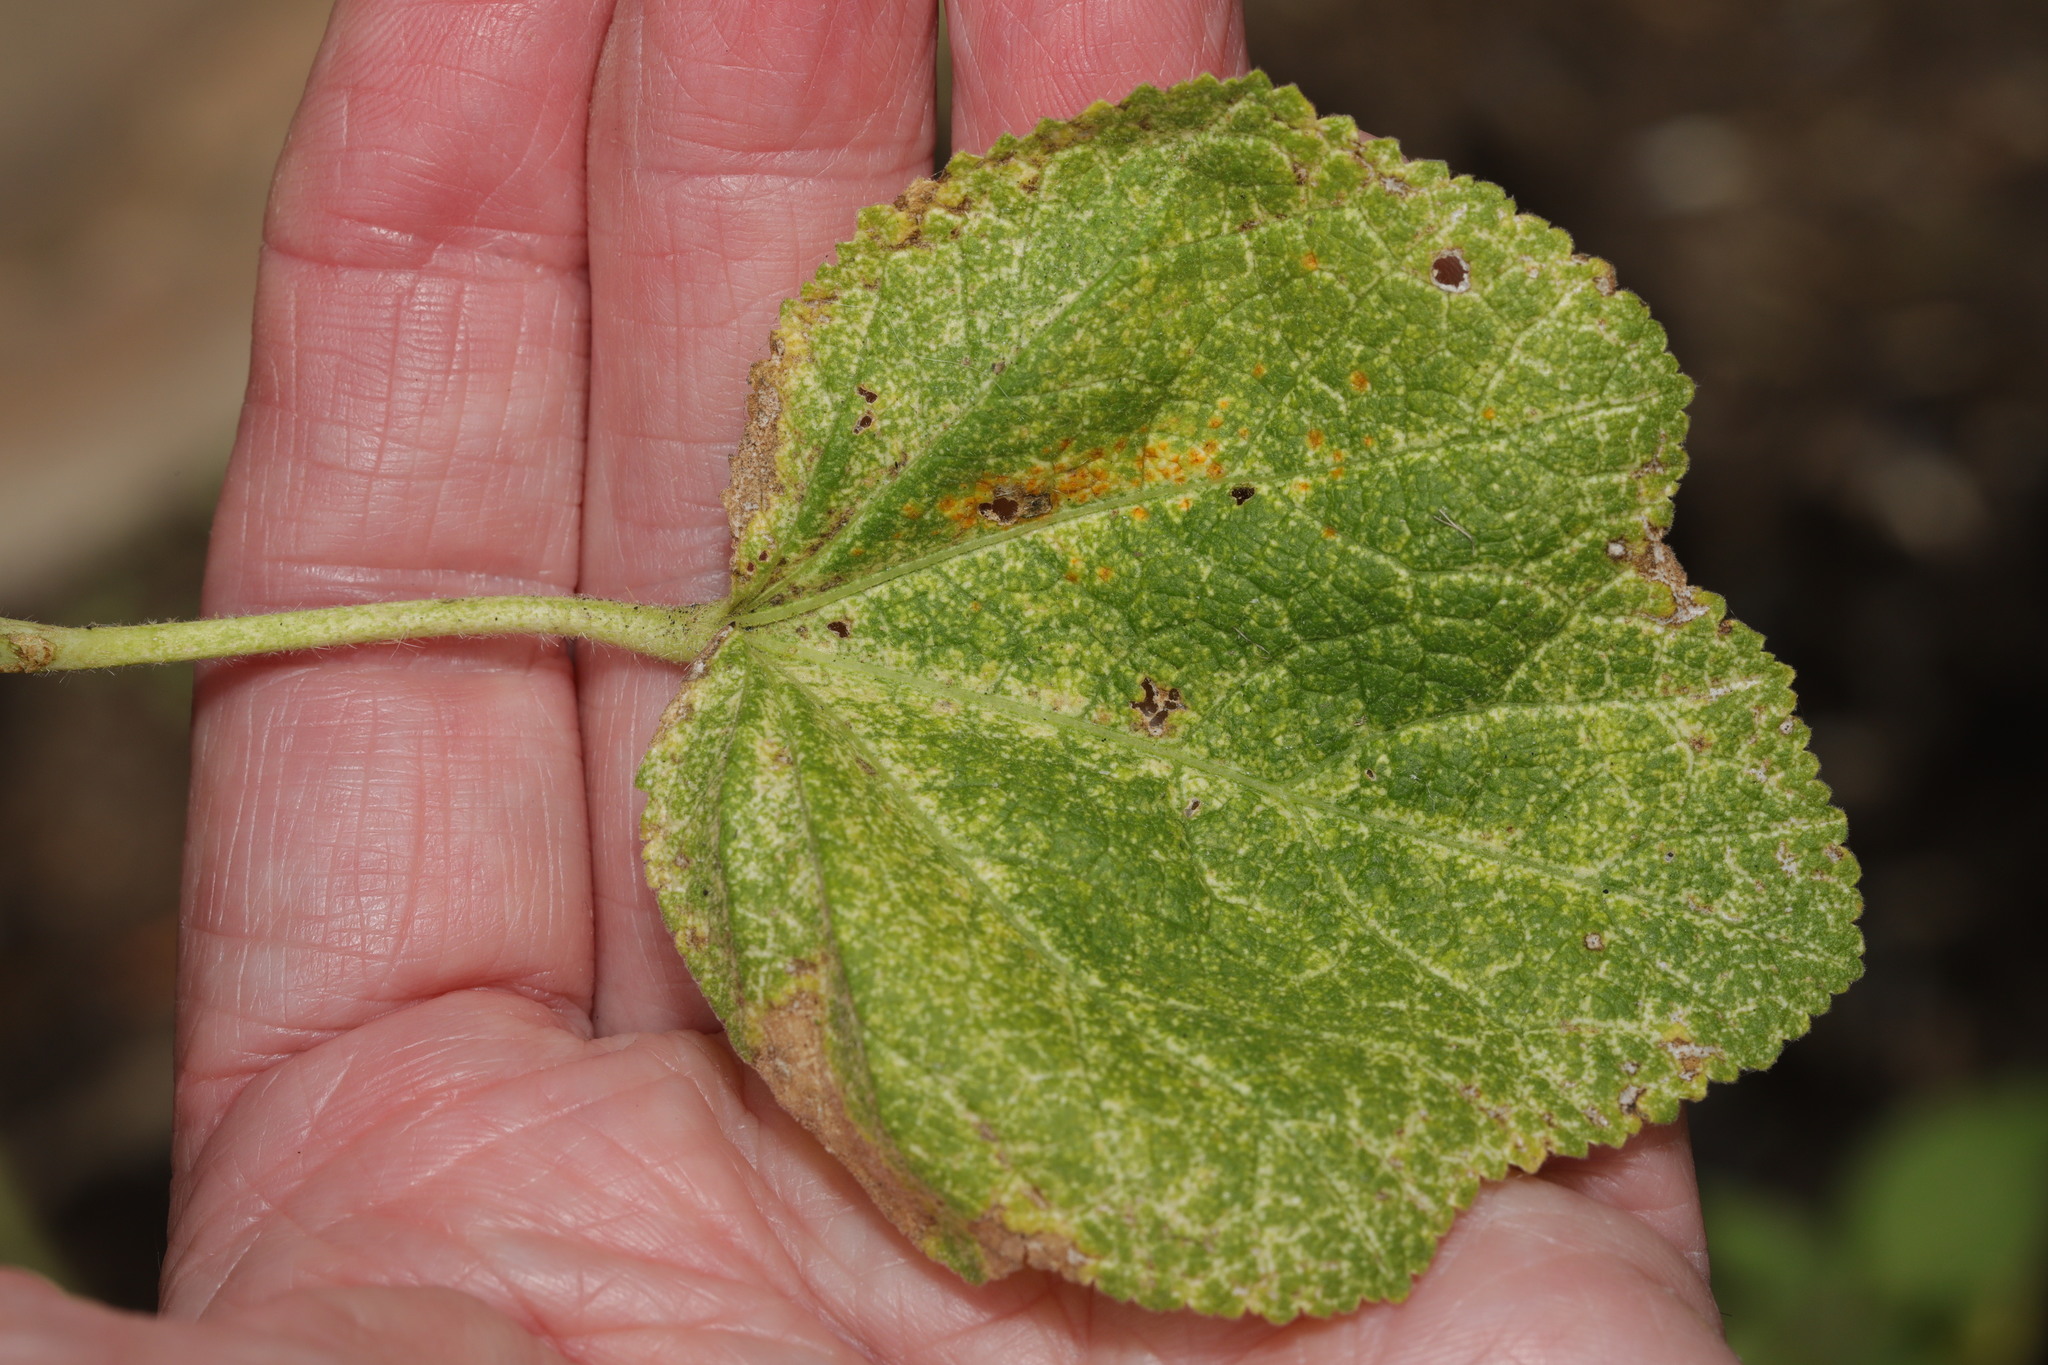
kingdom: Fungi
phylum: Basidiomycota
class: Pucciniomycetes
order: Pucciniales
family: Pucciniaceae
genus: Puccinia
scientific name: Puccinia malvacearum
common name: Hollyhock rust
